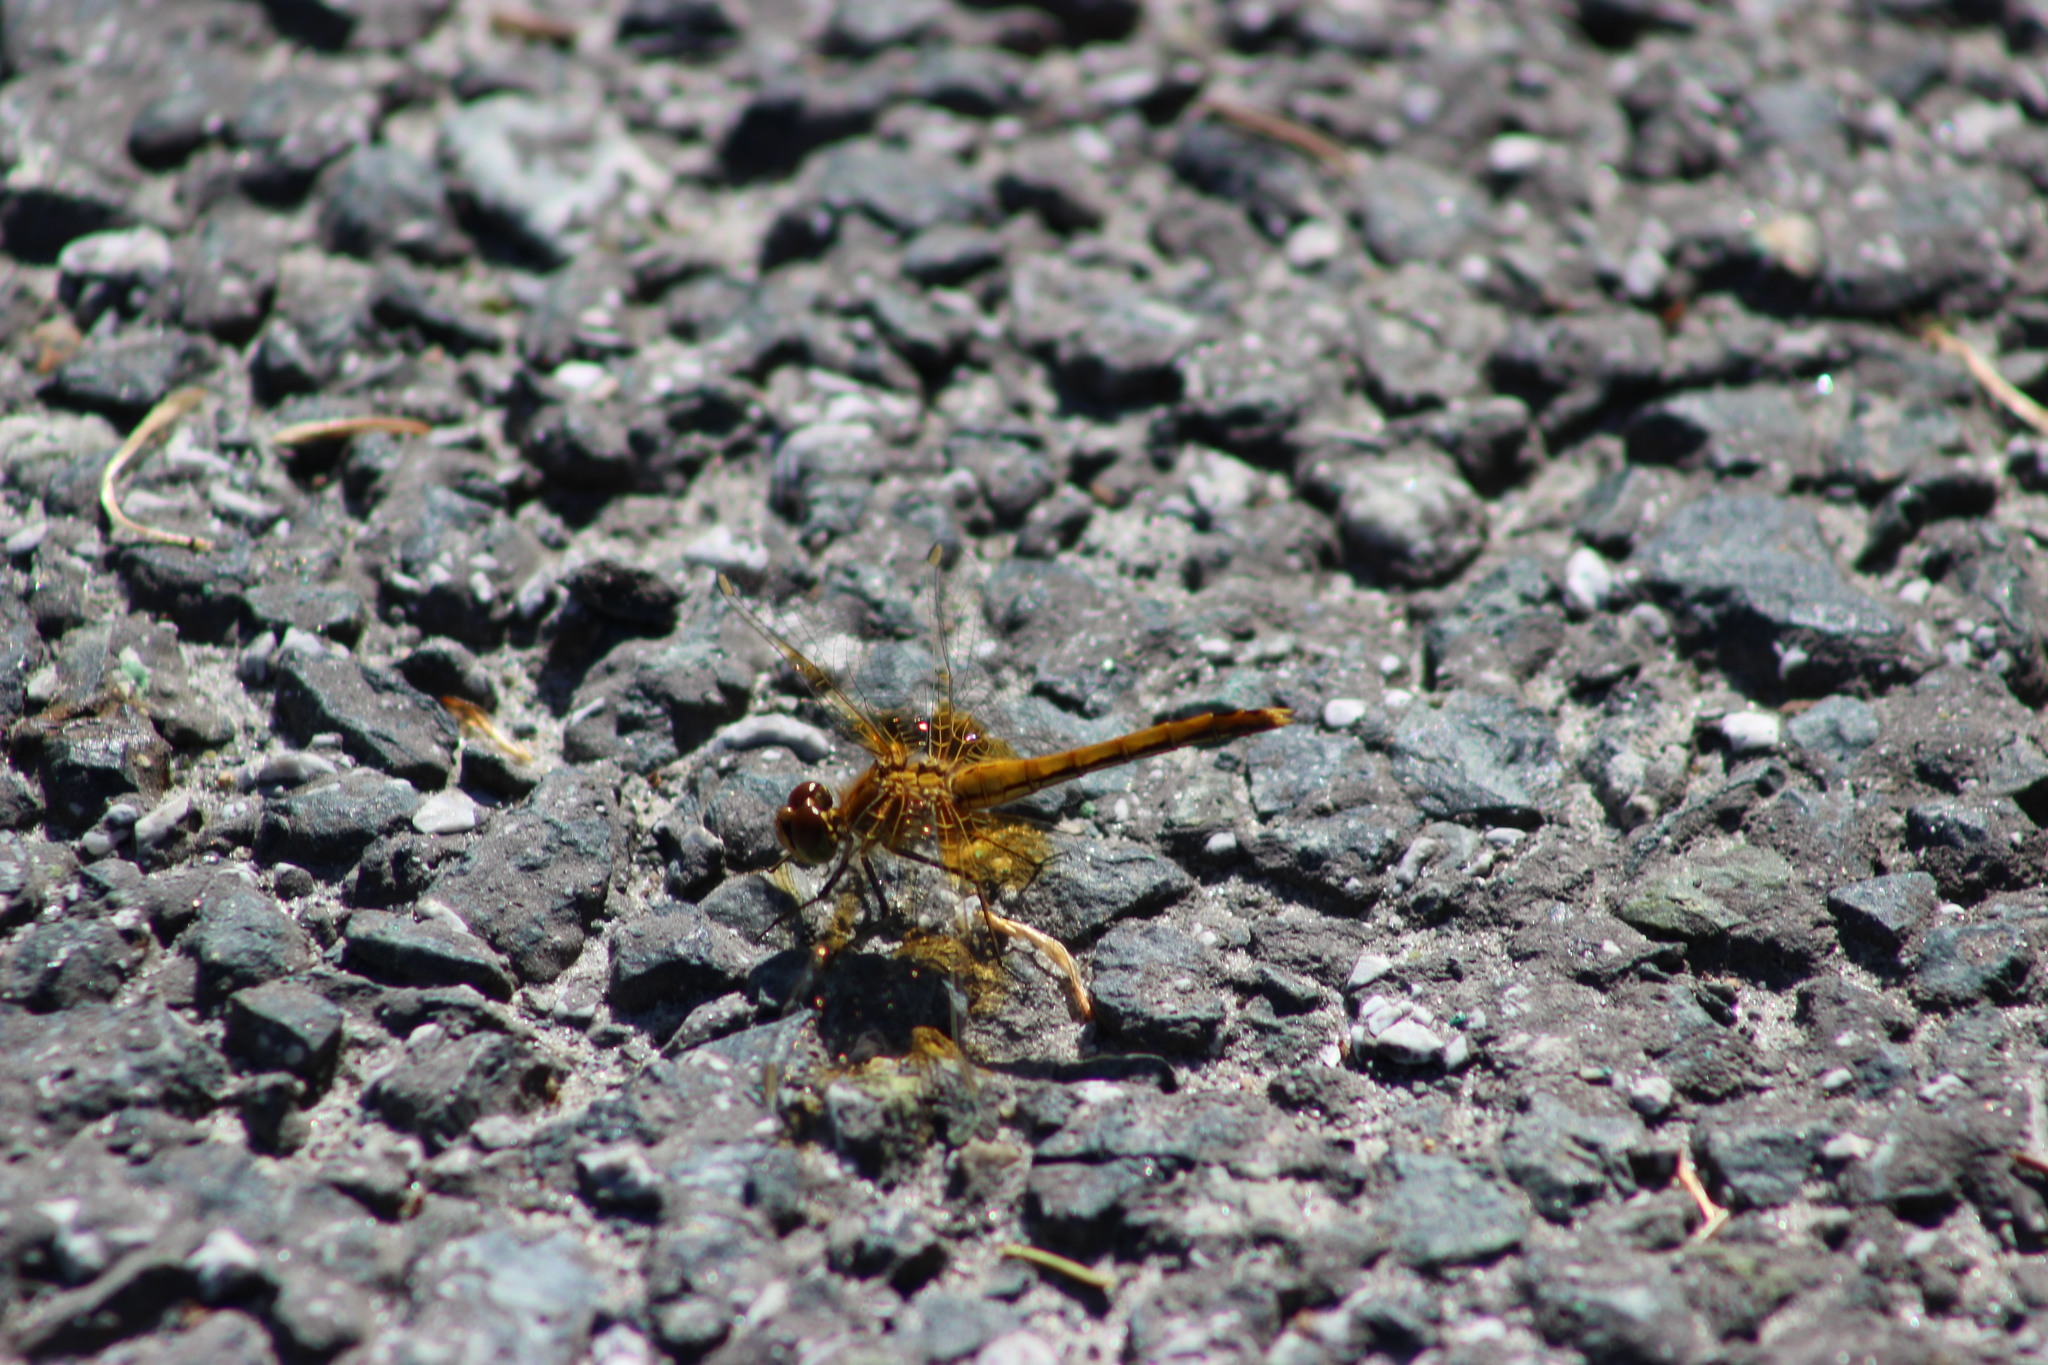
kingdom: Animalia
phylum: Arthropoda
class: Insecta
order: Odonata
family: Libellulidae
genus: Sympetrum
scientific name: Sympetrum flaveolum
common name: Yellow-winged darter
